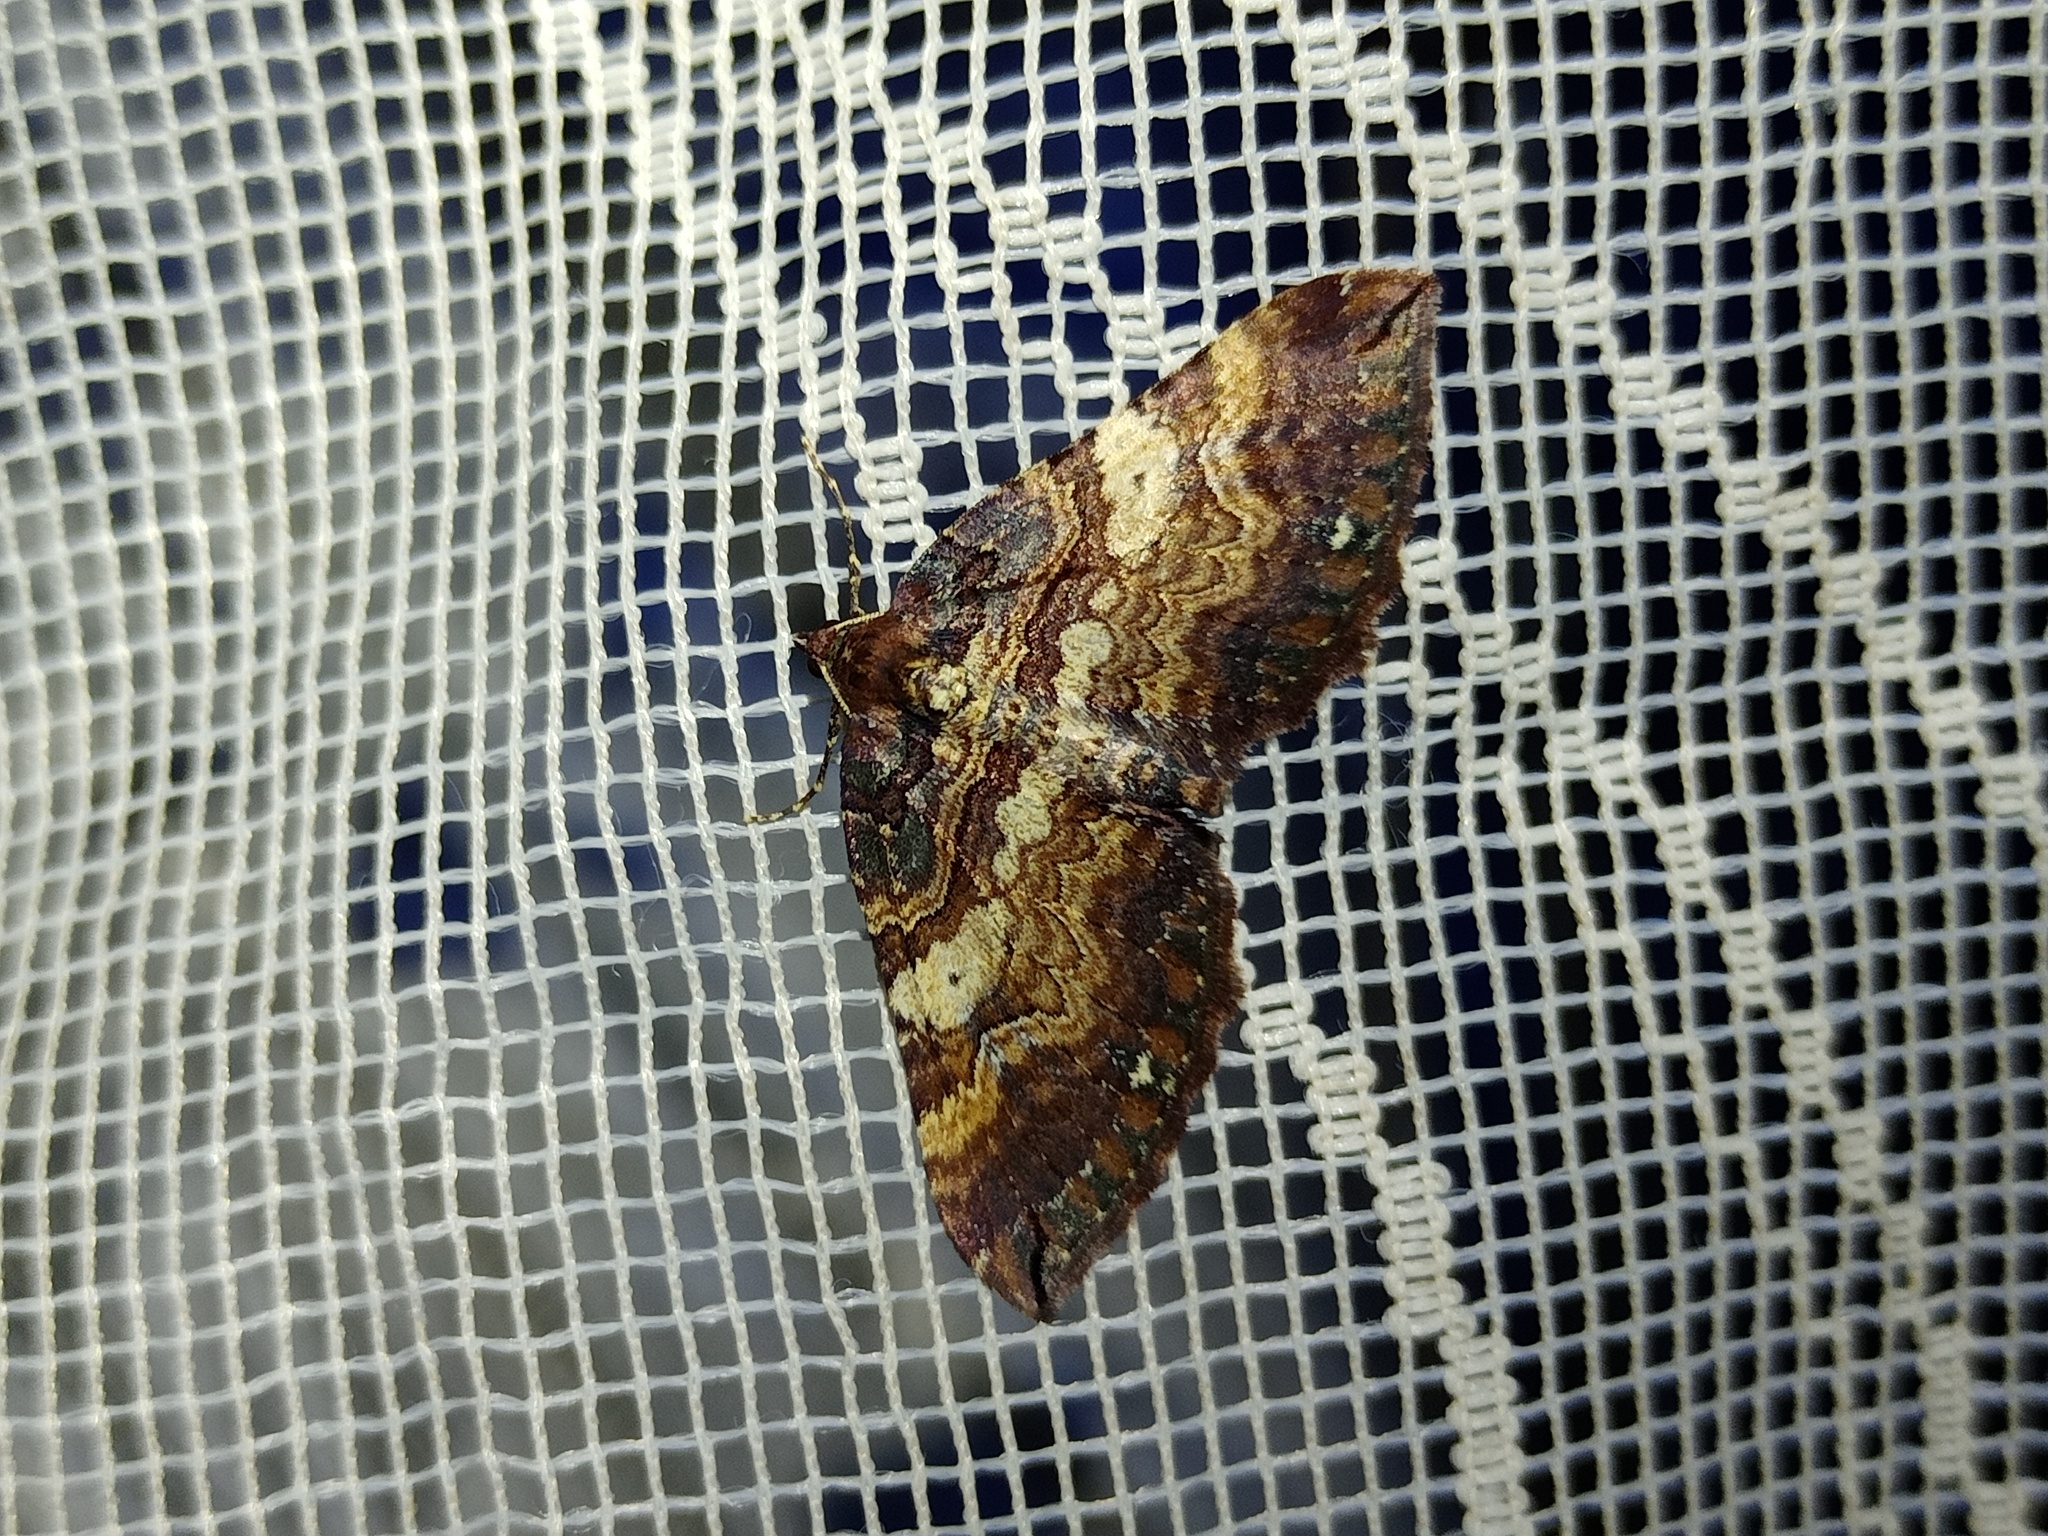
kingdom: Animalia
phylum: Arthropoda
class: Insecta
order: Lepidoptera
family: Geometridae
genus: Anticlea
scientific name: Anticlea badiata
